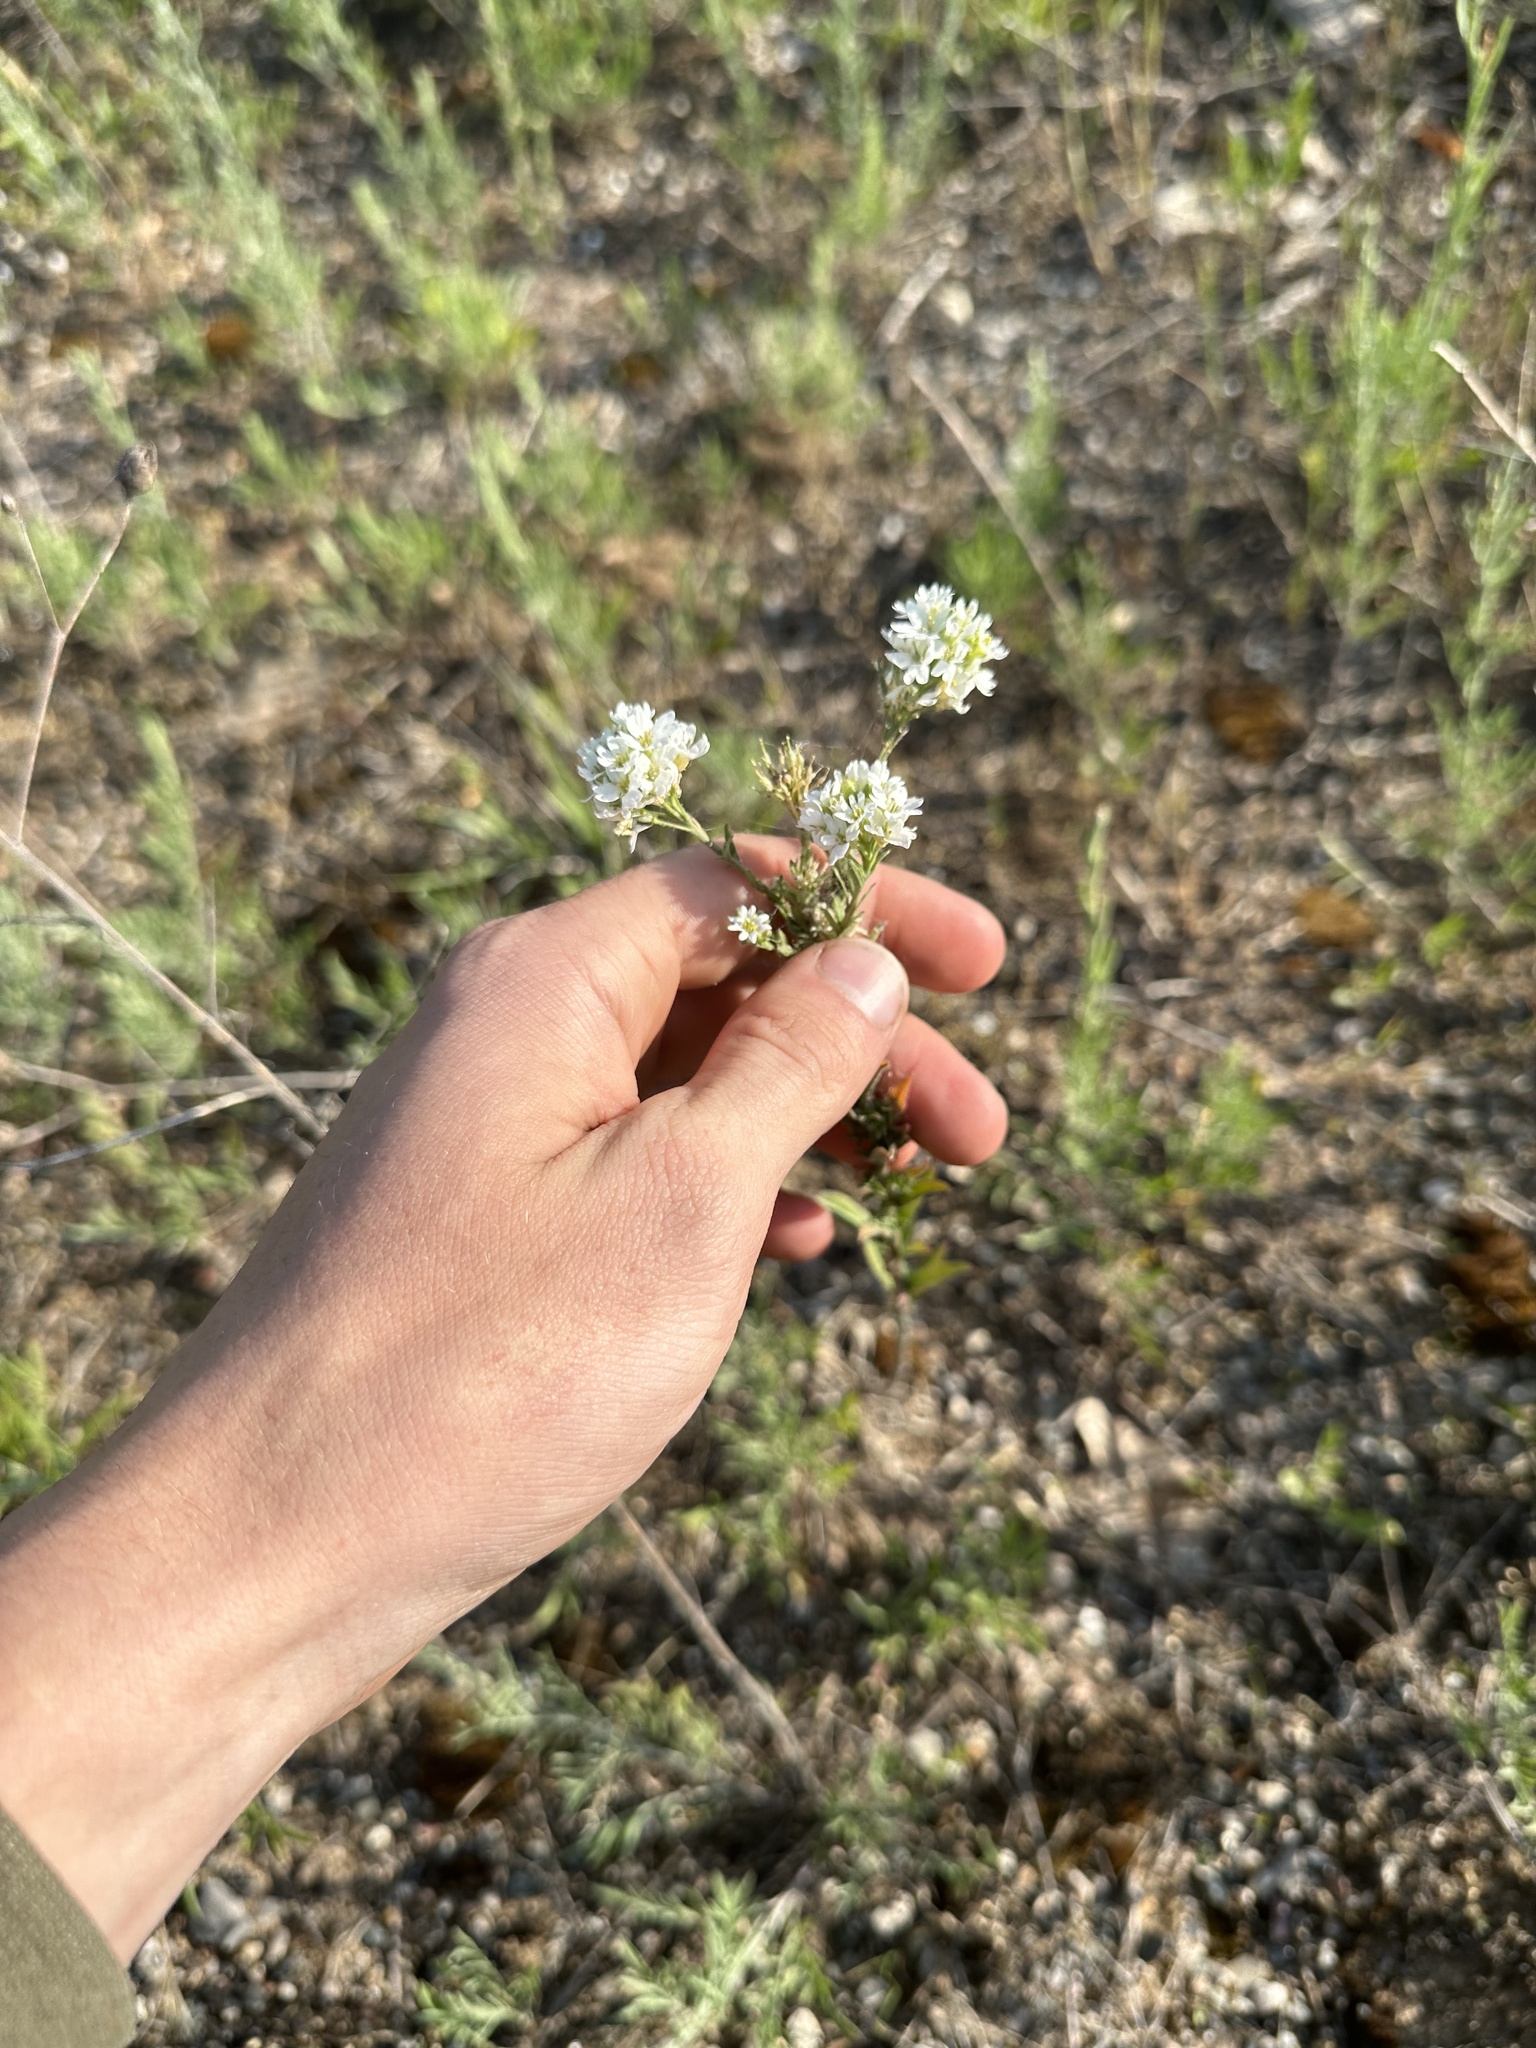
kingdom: Plantae
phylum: Tracheophyta
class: Magnoliopsida
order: Brassicales
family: Brassicaceae
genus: Berteroa
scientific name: Berteroa incana
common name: Hoary alison
